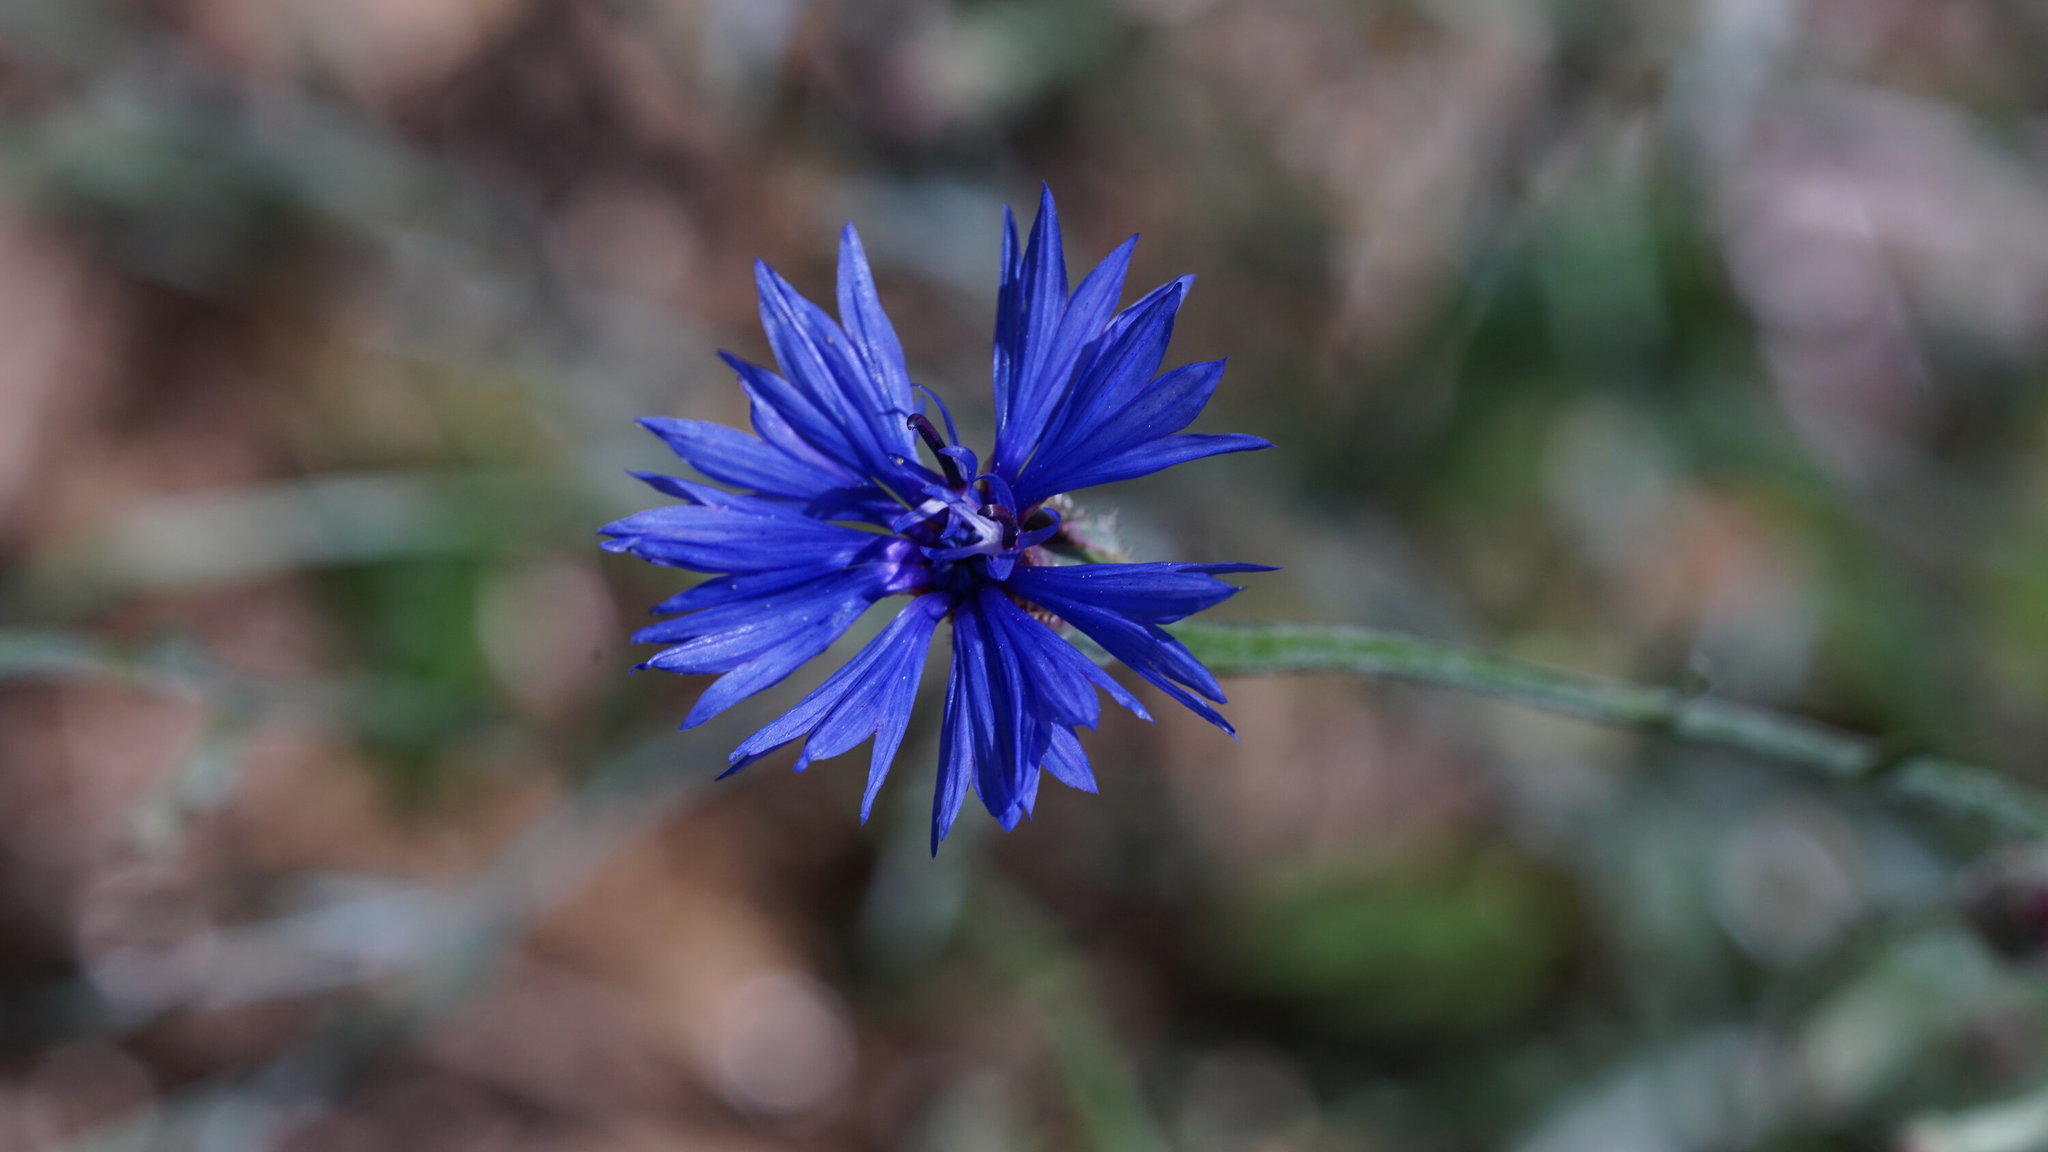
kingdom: Plantae
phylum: Tracheophyta
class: Magnoliopsida
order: Asterales
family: Asteraceae
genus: Centaurea
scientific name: Centaurea cyanus
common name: Cornflower
